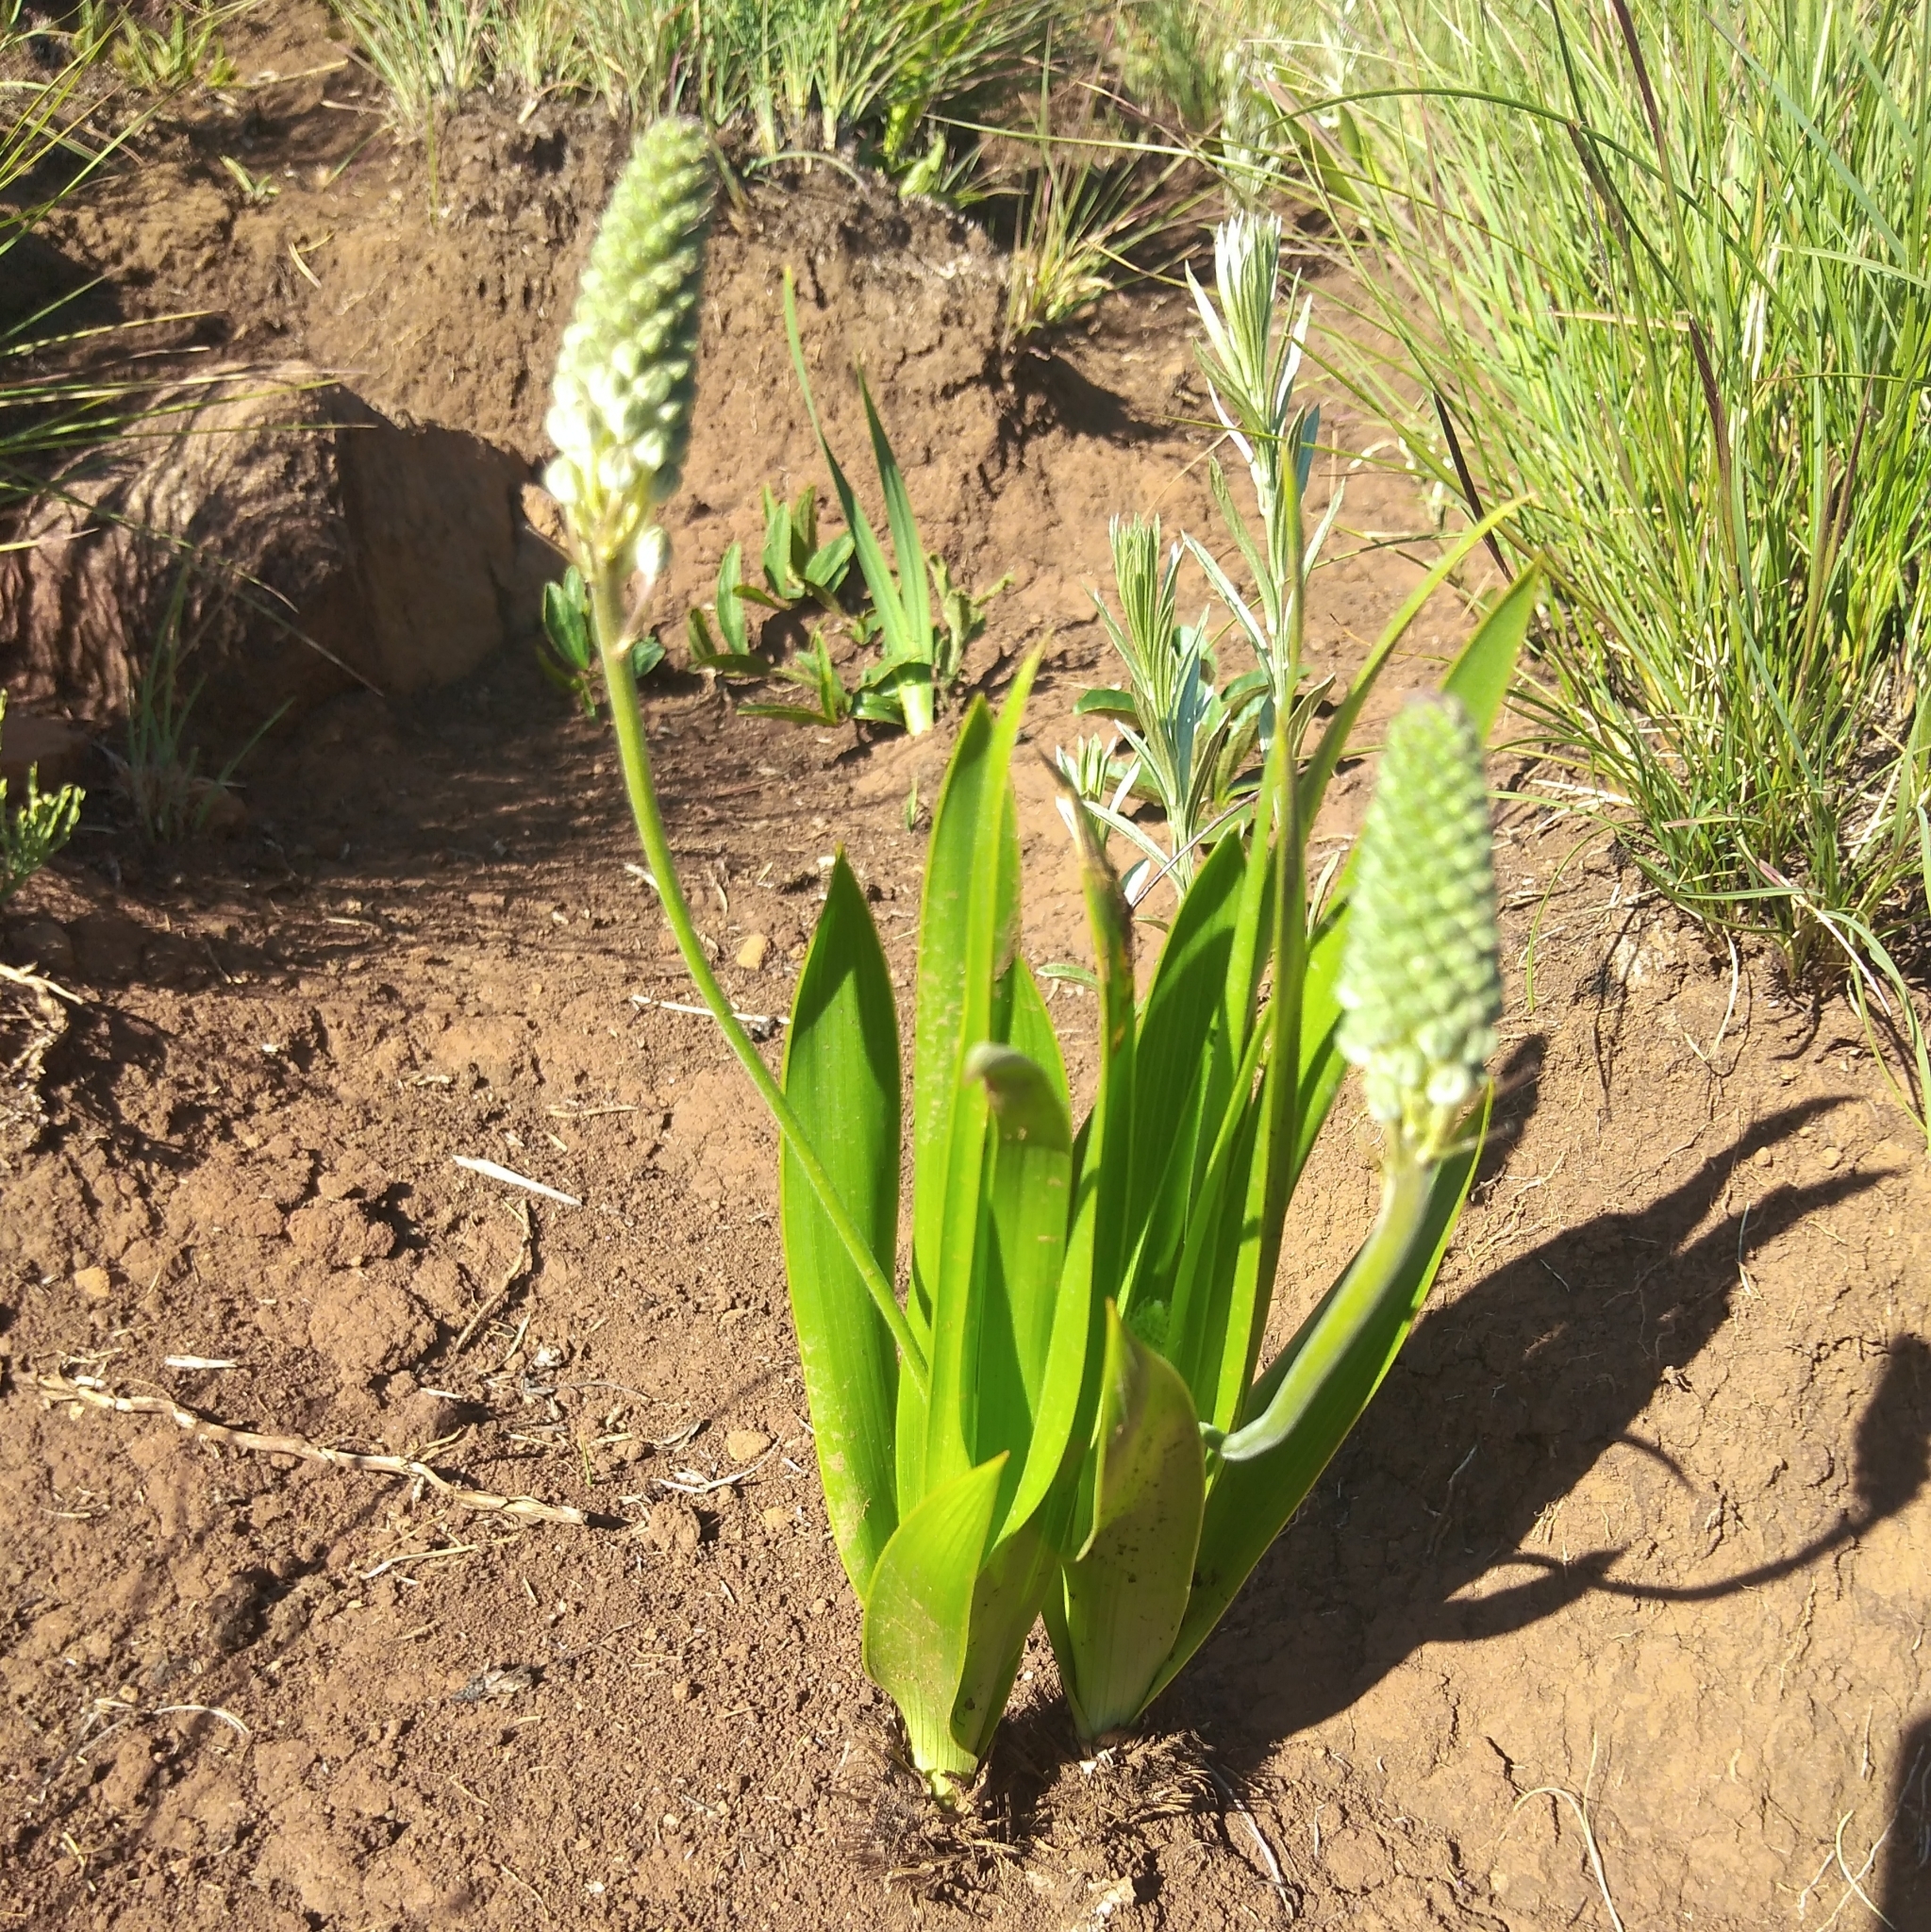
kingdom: Plantae
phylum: Tracheophyta
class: Liliopsida
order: Asparagales
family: Asparagaceae
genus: Schizocarphus
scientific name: Schizocarphus nervosus
